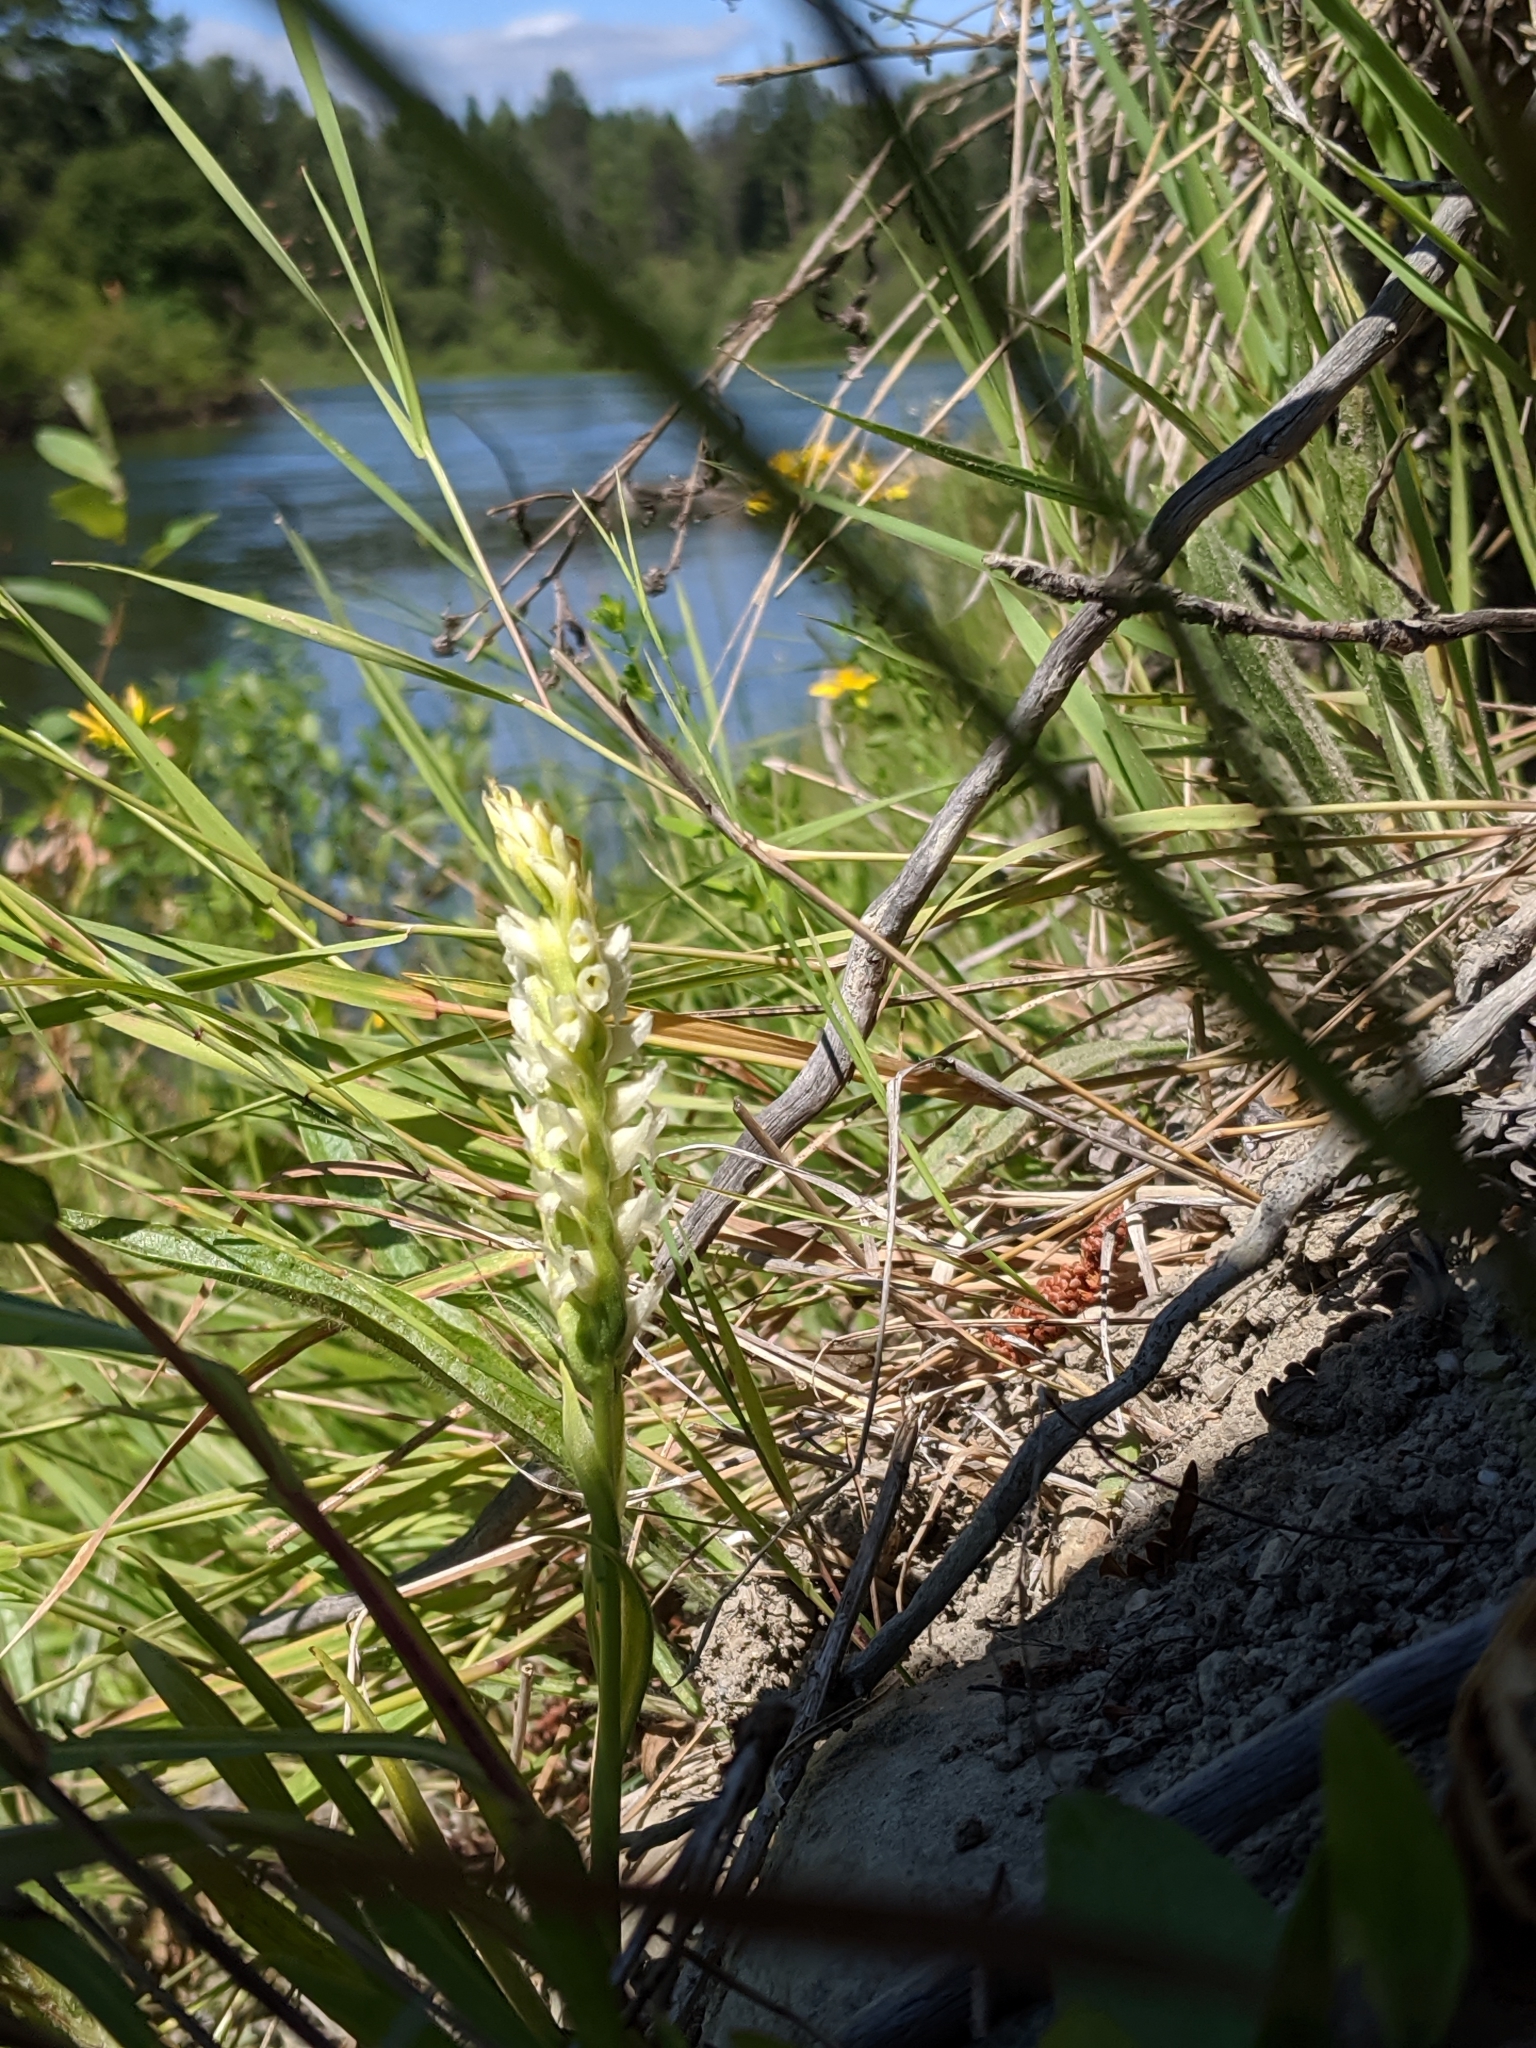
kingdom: Plantae
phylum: Tracheophyta
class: Liliopsida
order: Asparagales
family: Orchidaceae
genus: Spiranthes
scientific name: Spiranthes romanzoffiana
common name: Irish lady's-tresses
